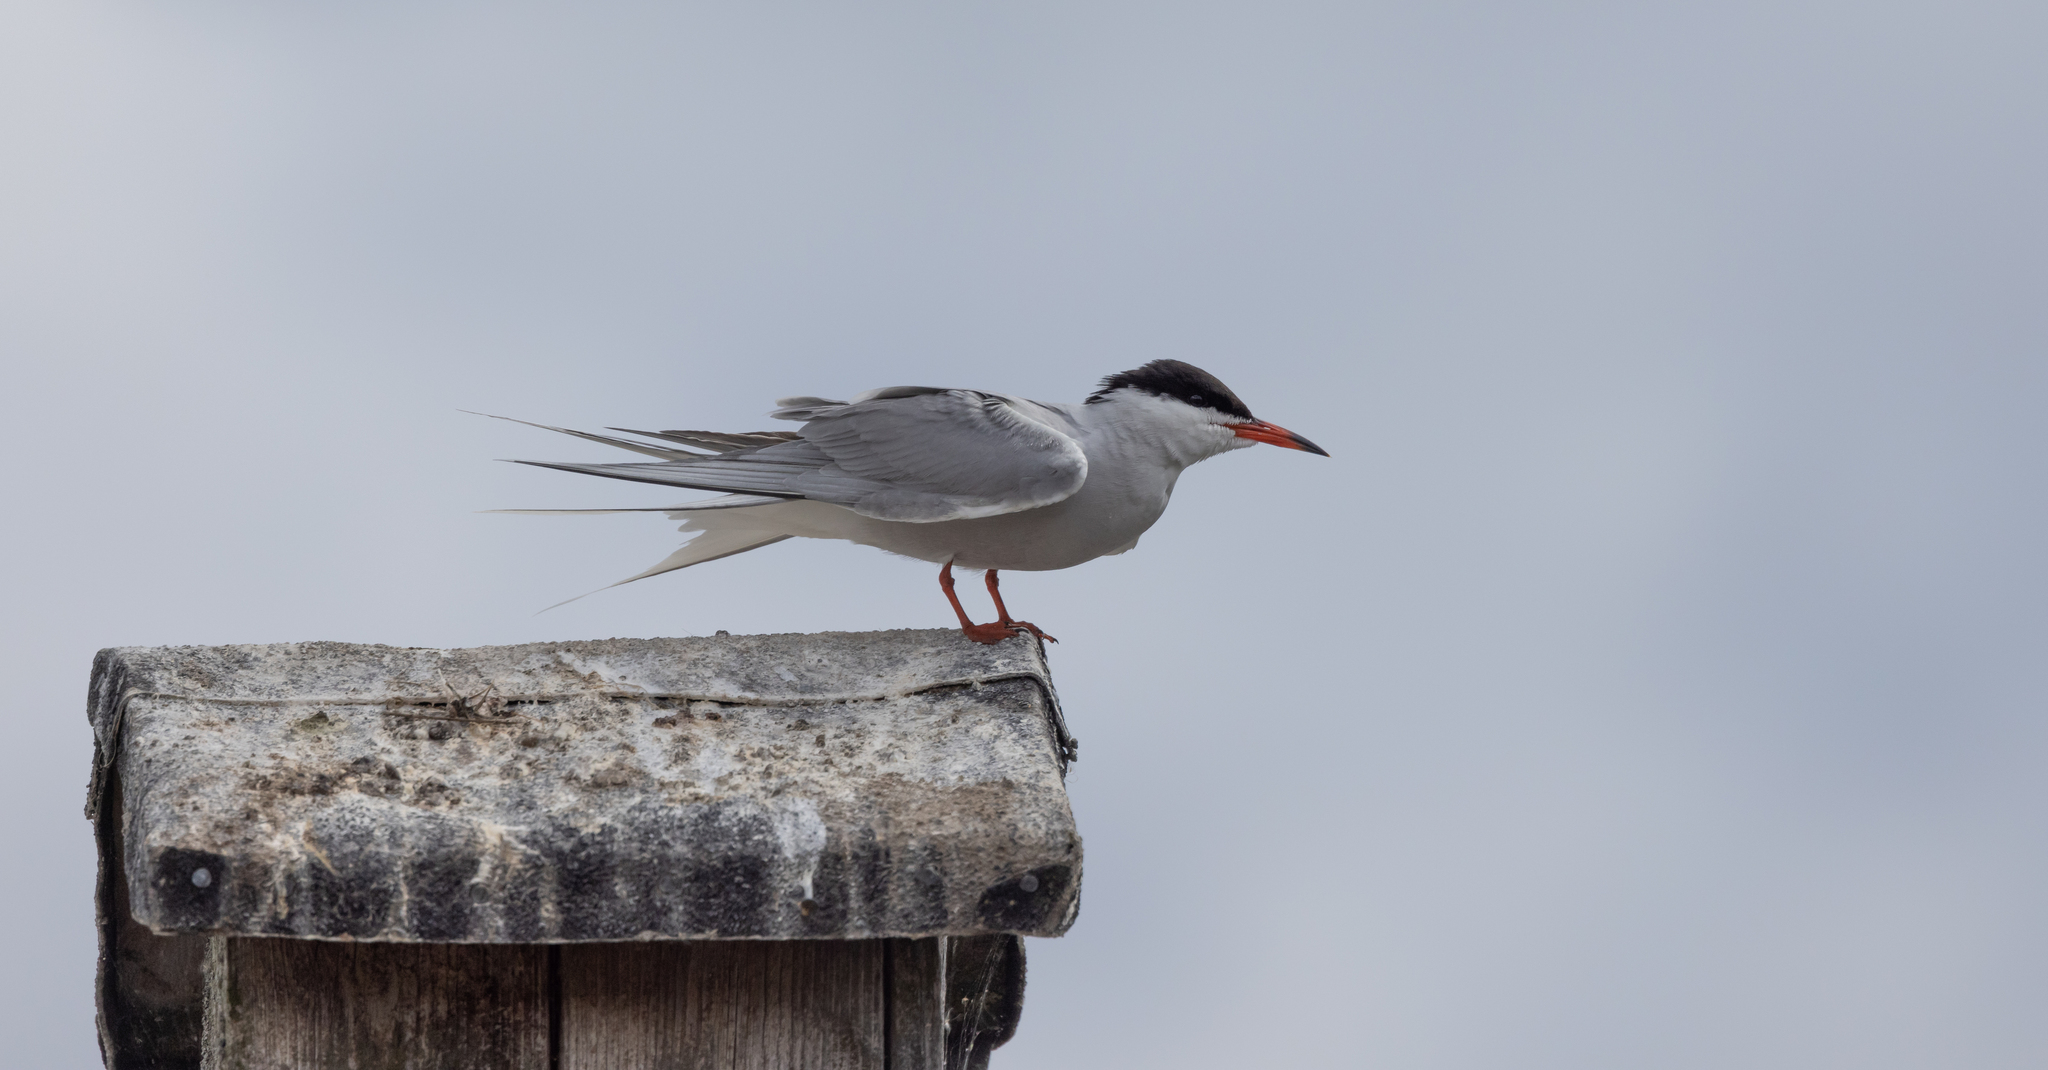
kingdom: Animalia
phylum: Chordata
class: Aves
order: Charadriiformes
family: Laridae
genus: Sterna
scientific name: Sterna hirundo
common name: Common tern
